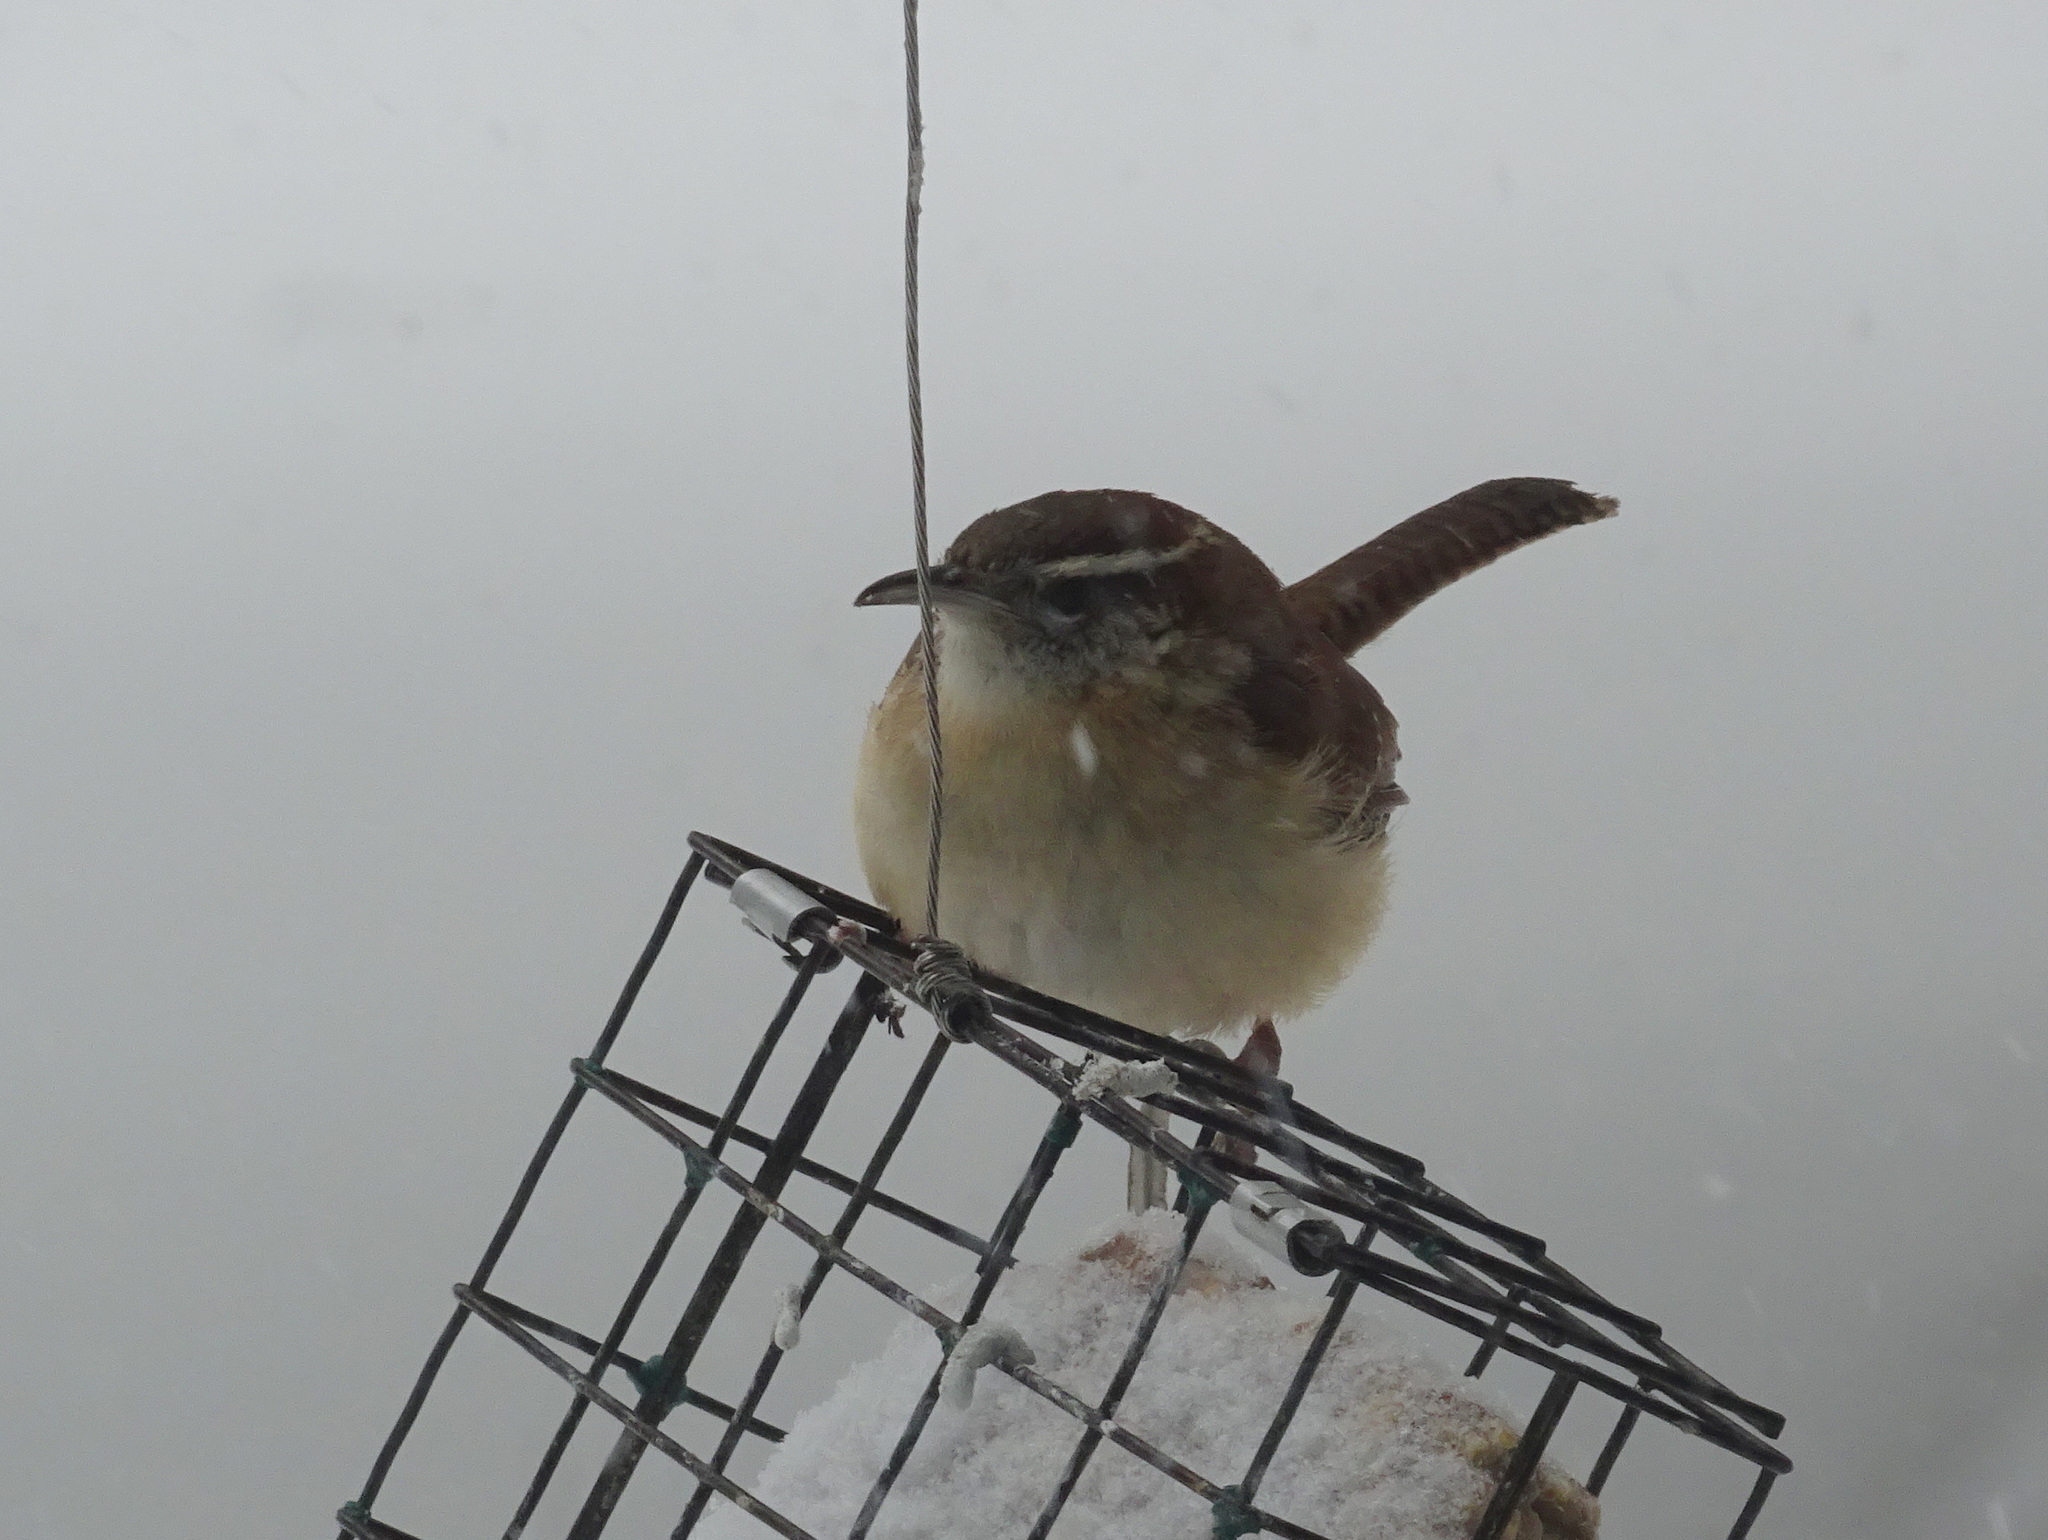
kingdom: Animalia
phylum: Chordata
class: Aves
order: Passeriformes
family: Troglodytidae
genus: Thryothorus
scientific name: Thryothorus ludovicianus
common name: Carolina wren
